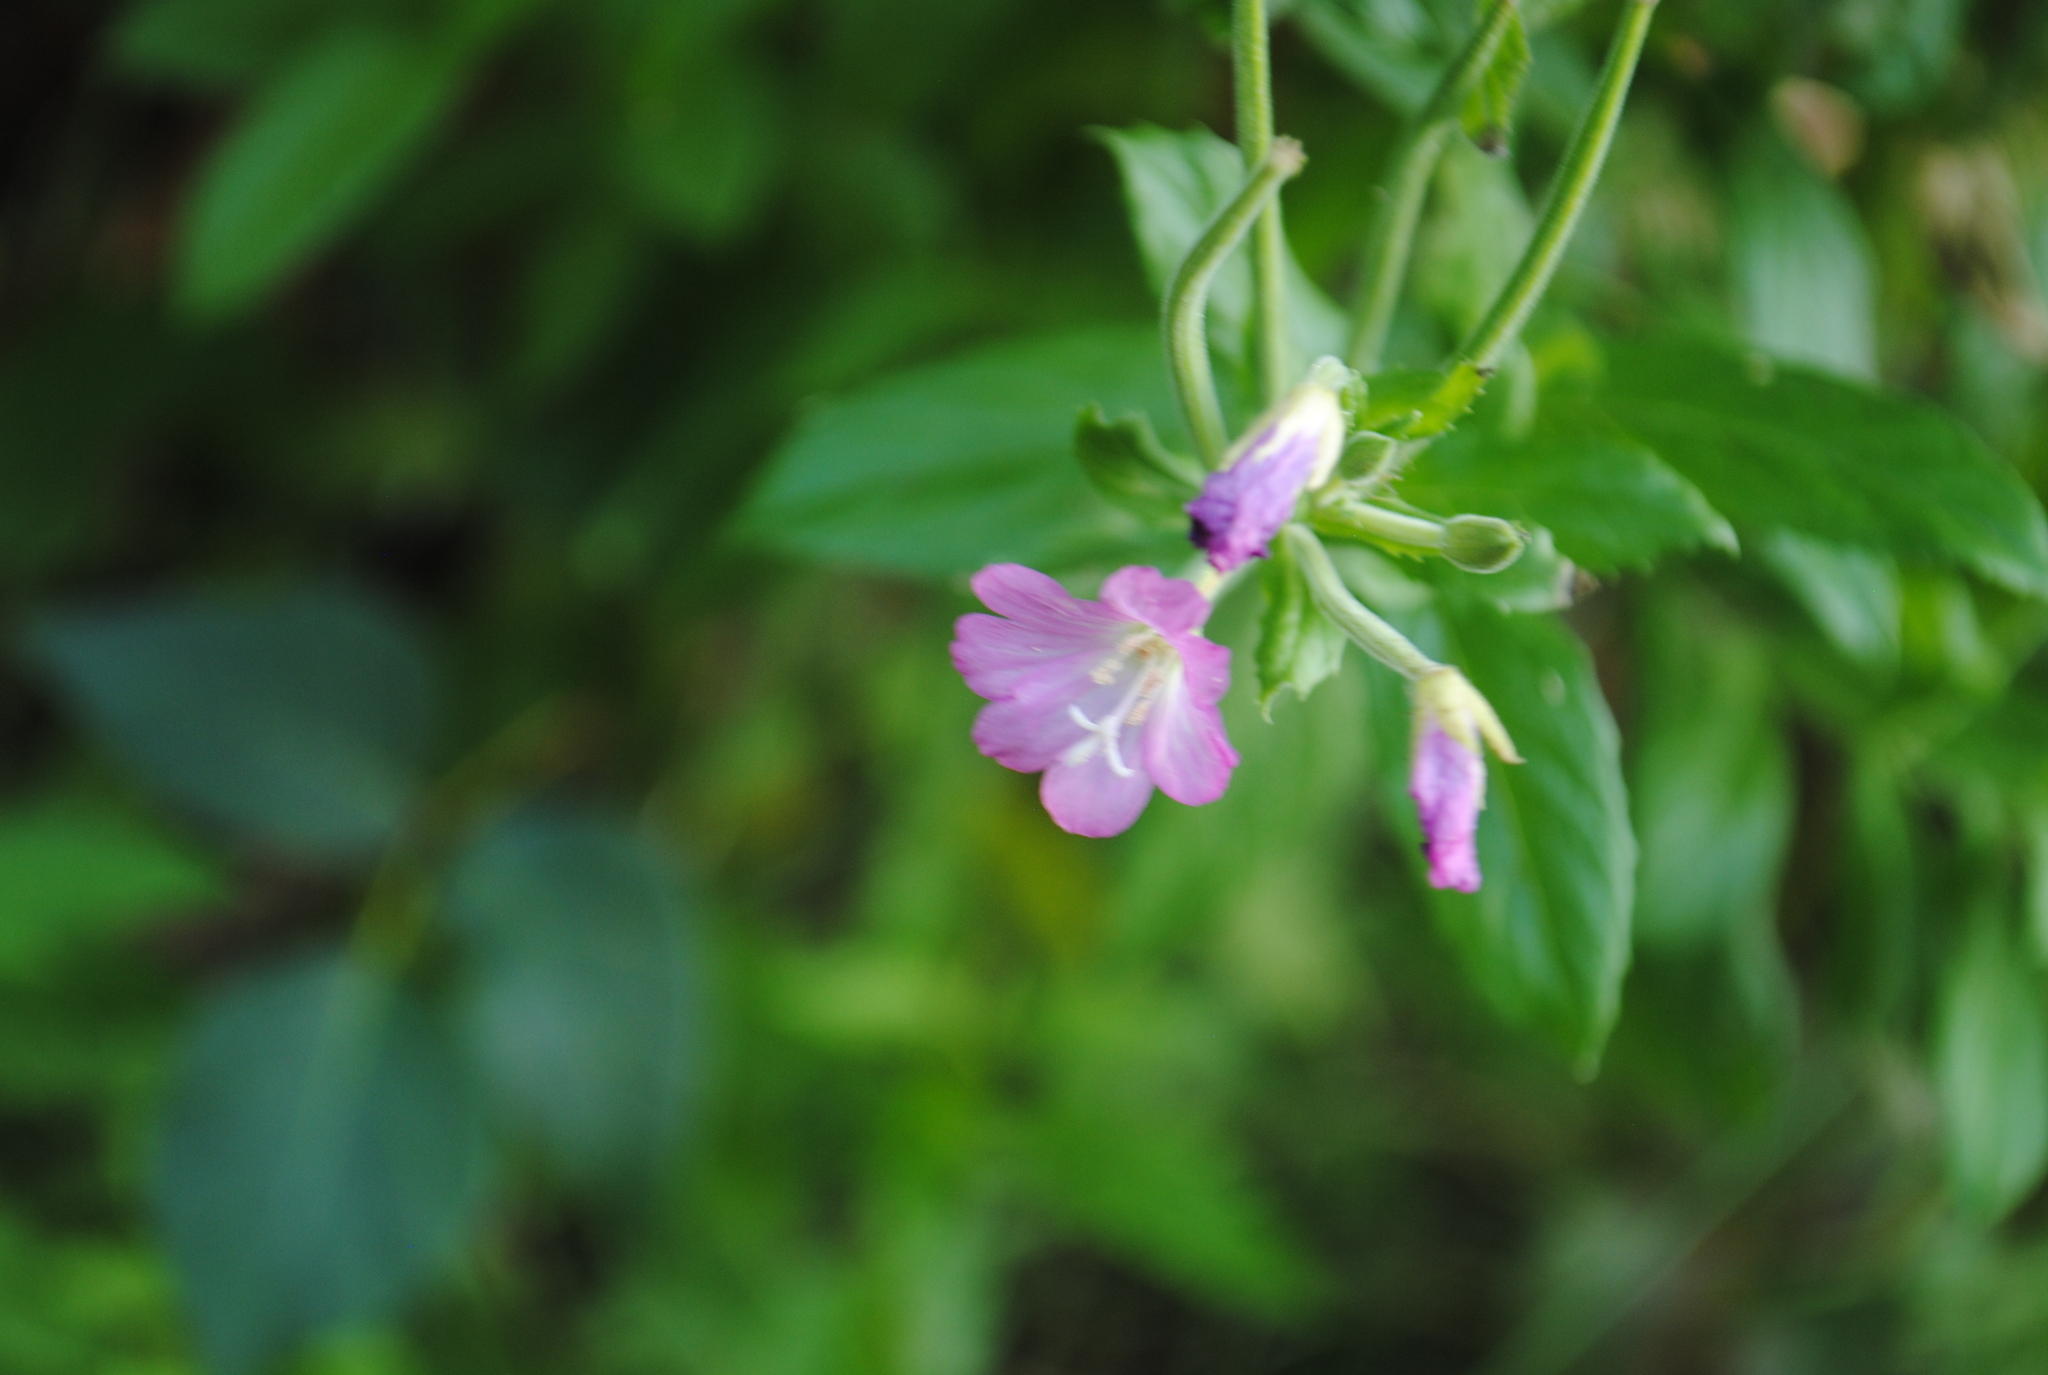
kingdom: Plantae
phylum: Tracheophyta
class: Magnoliopsida
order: Myrtales
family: Onagraceae
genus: Epilobium
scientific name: Epilobium hirsutum
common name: Great willowherb
